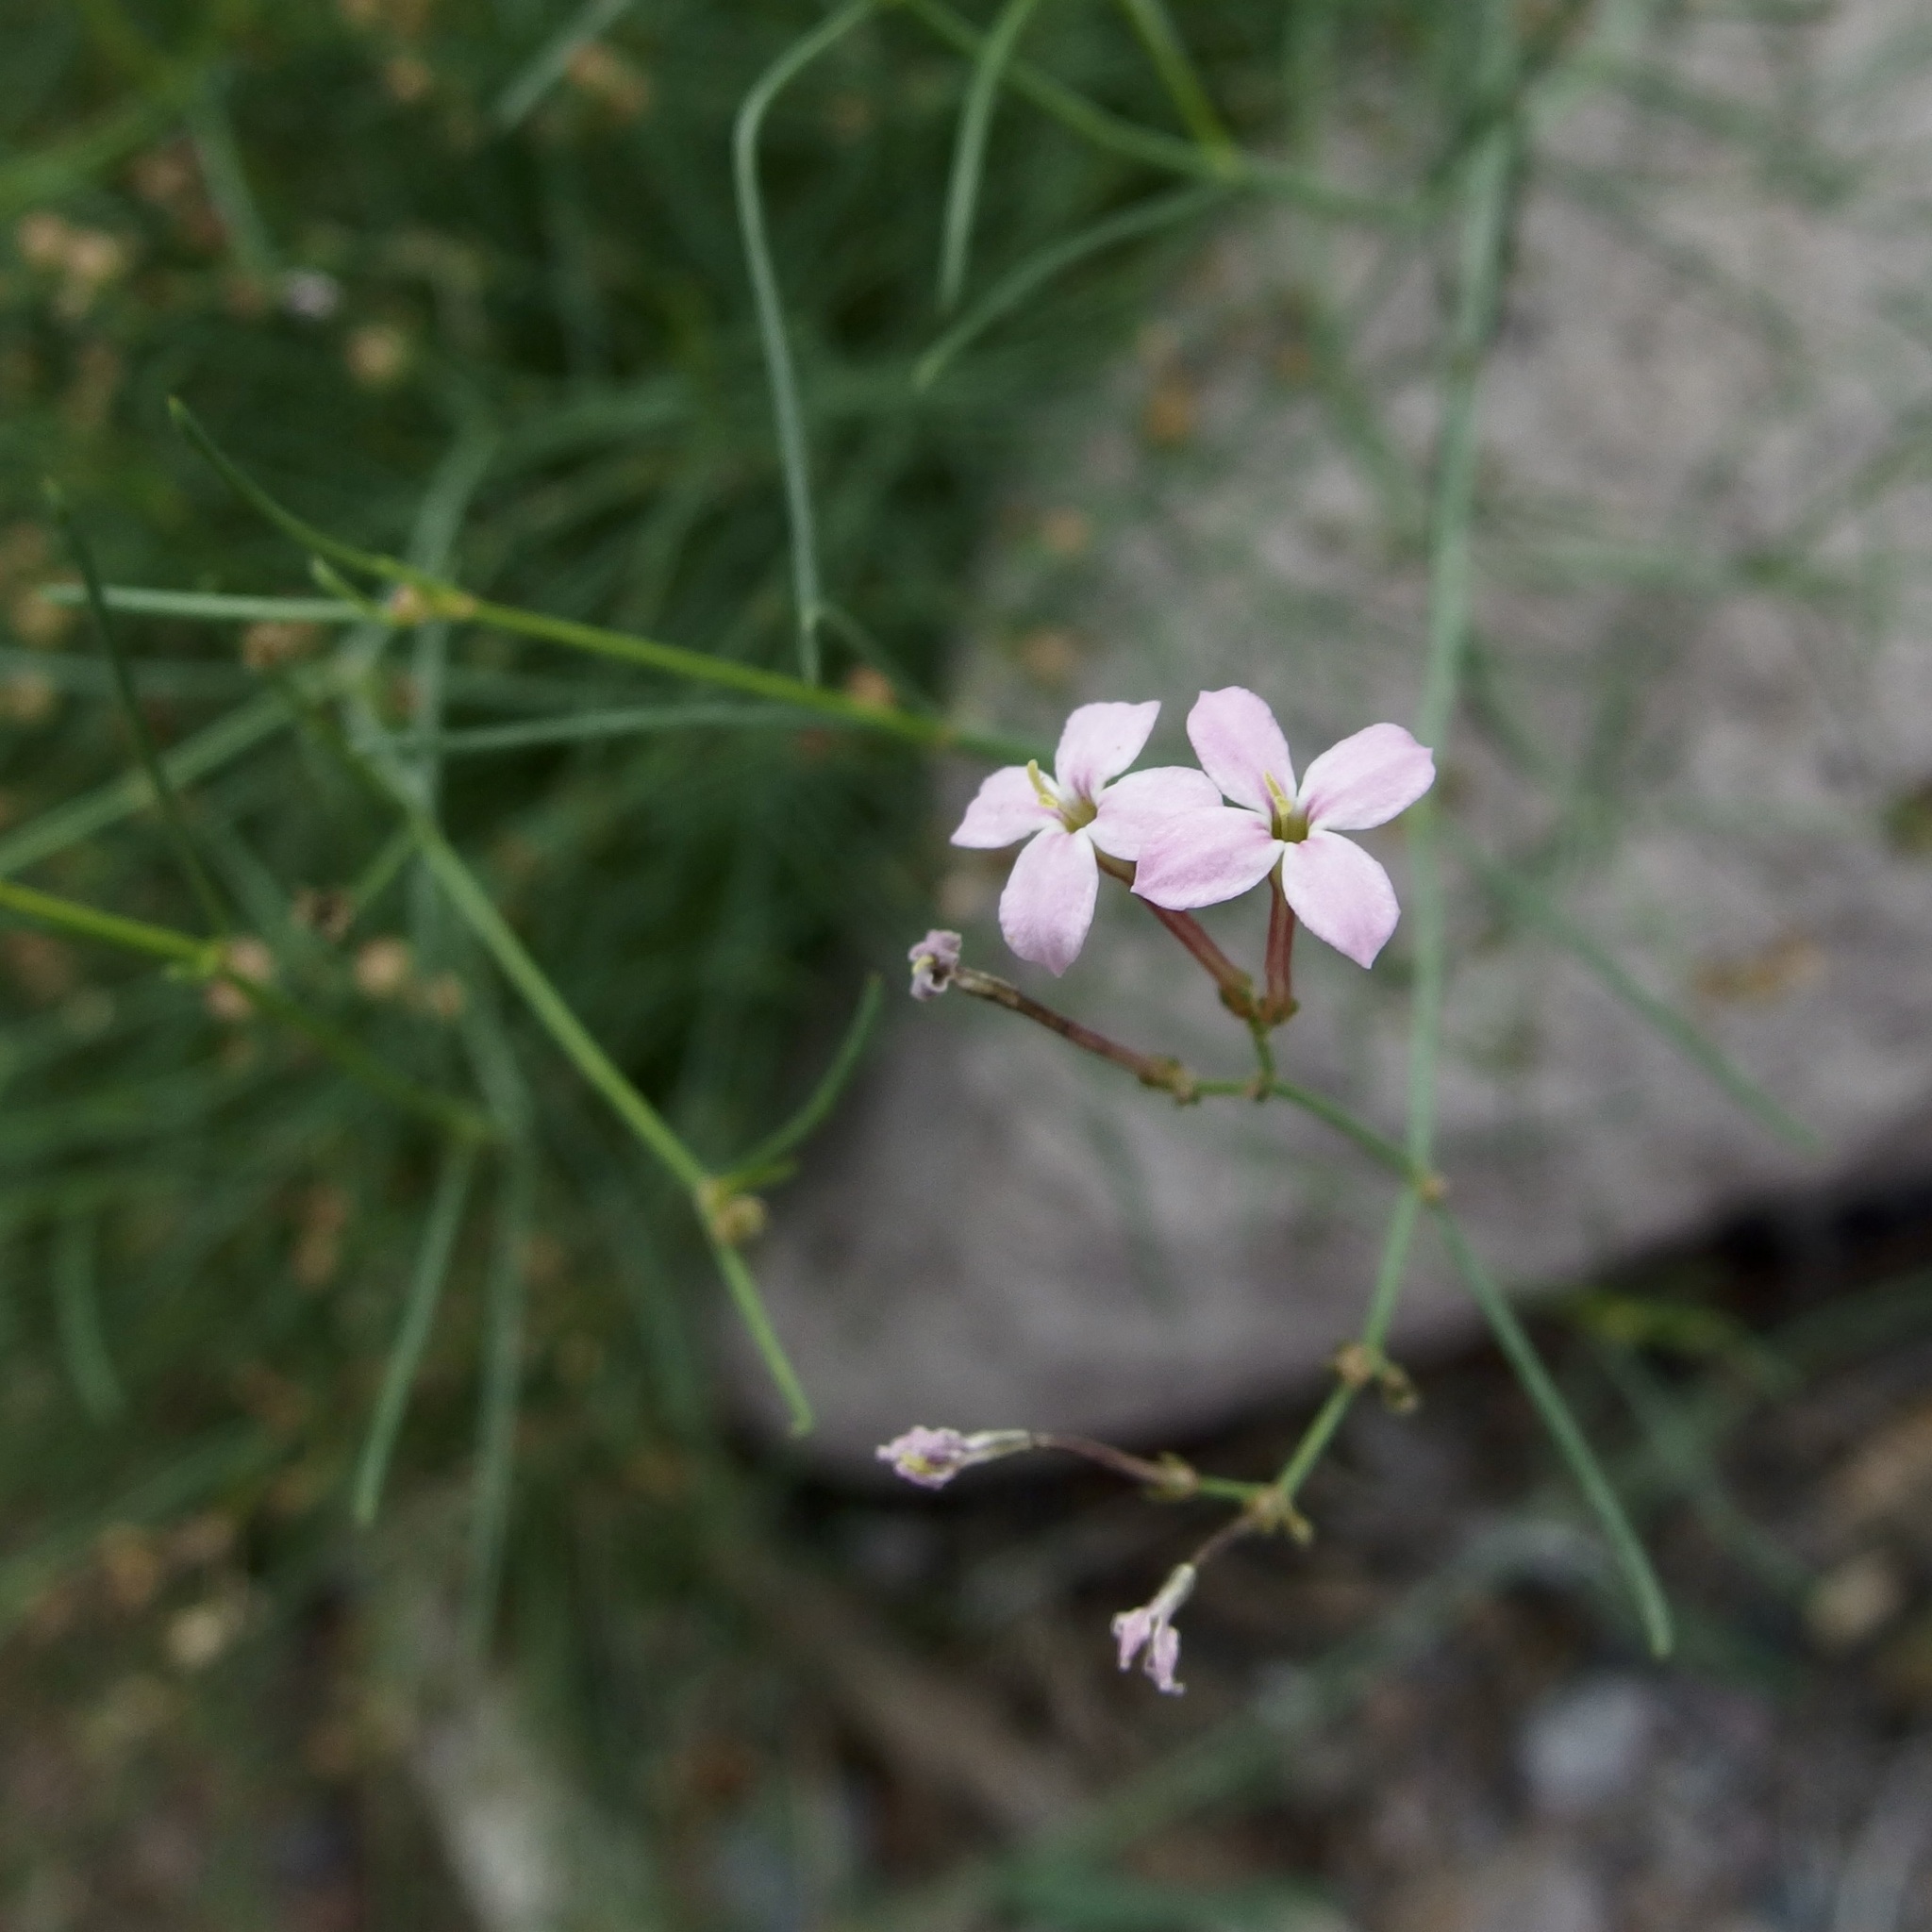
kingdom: Plantae
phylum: Tracheophyta
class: Magnoliopsida
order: Gentianales
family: Rubiaceae
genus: Stenotis
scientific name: Stenotis brevipes
